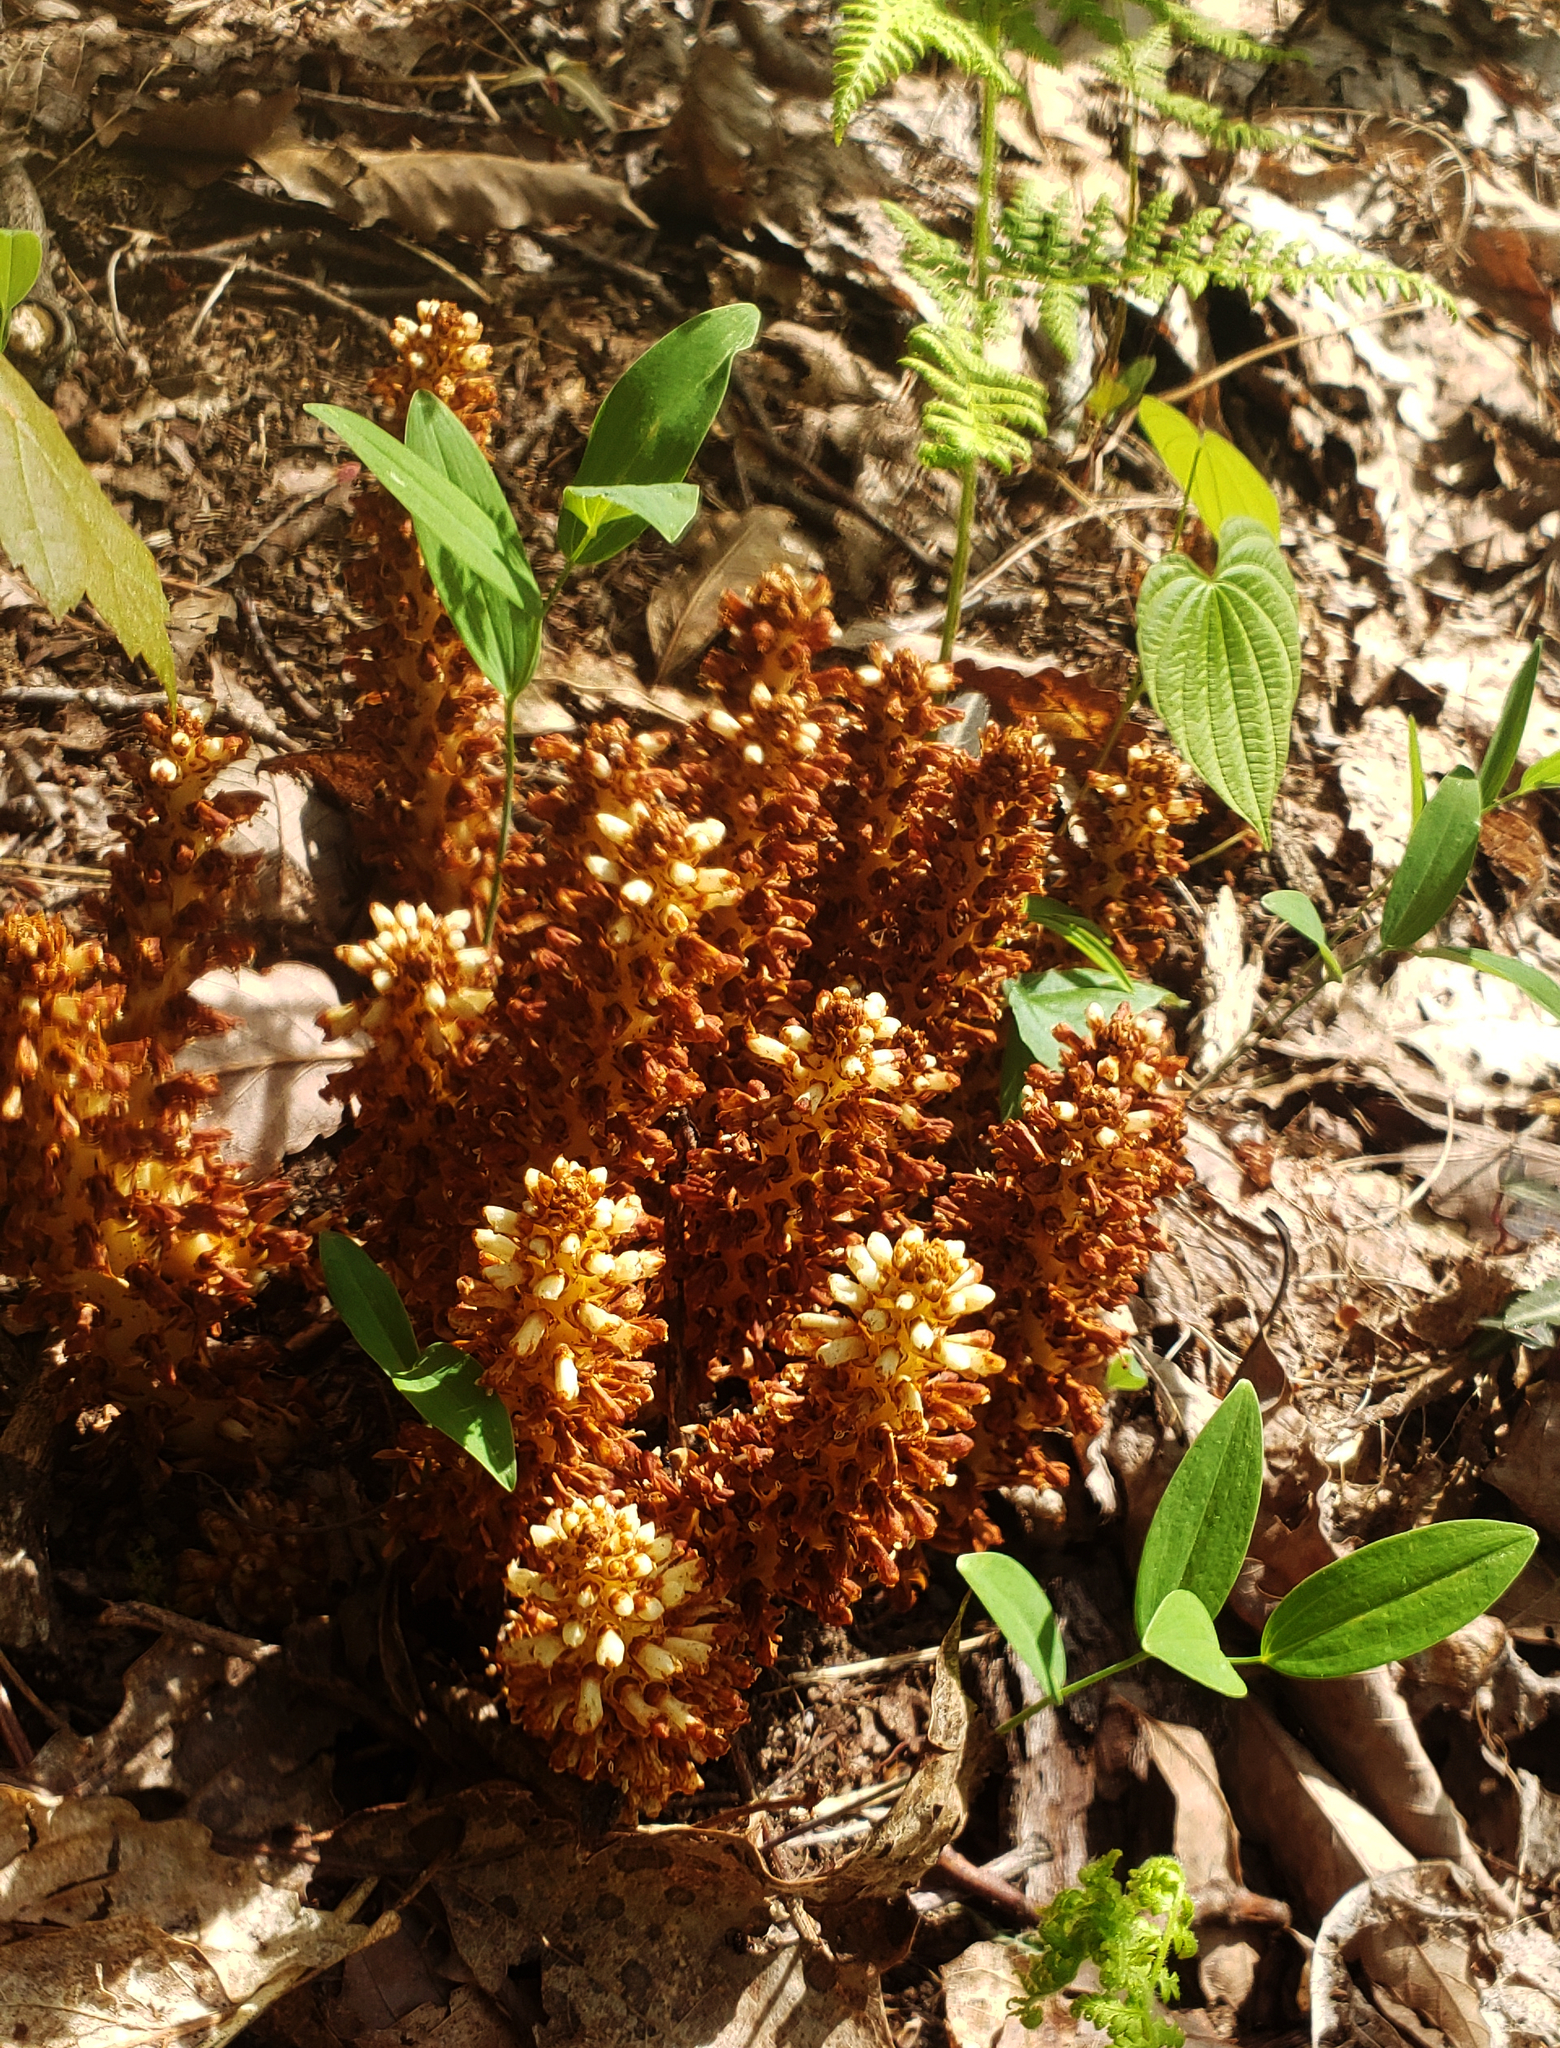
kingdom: Plantae
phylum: Tracheophyta
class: Magnoliopsida
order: Lamiales
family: Orobanchaceae
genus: Conopholis
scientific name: Conopholis americana
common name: American cancer-root
